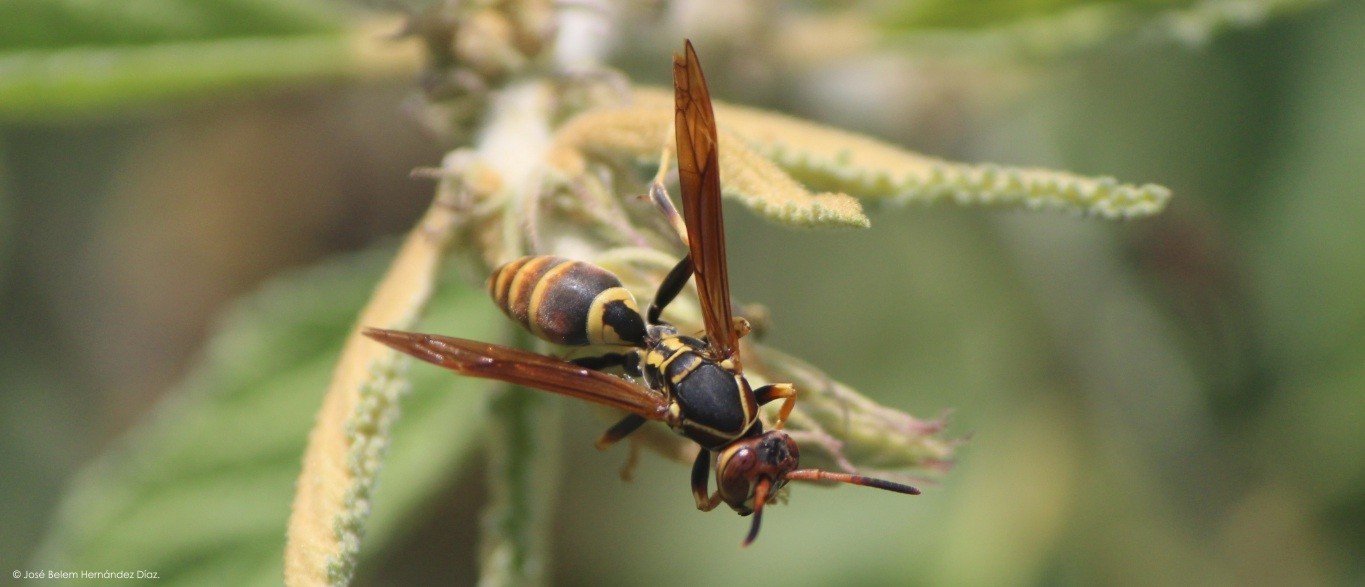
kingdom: Animalia
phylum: Arthropoda
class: Insecta
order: Hymenoptera
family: Eumenidae
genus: Polistes
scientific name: Polistes dorsalis
